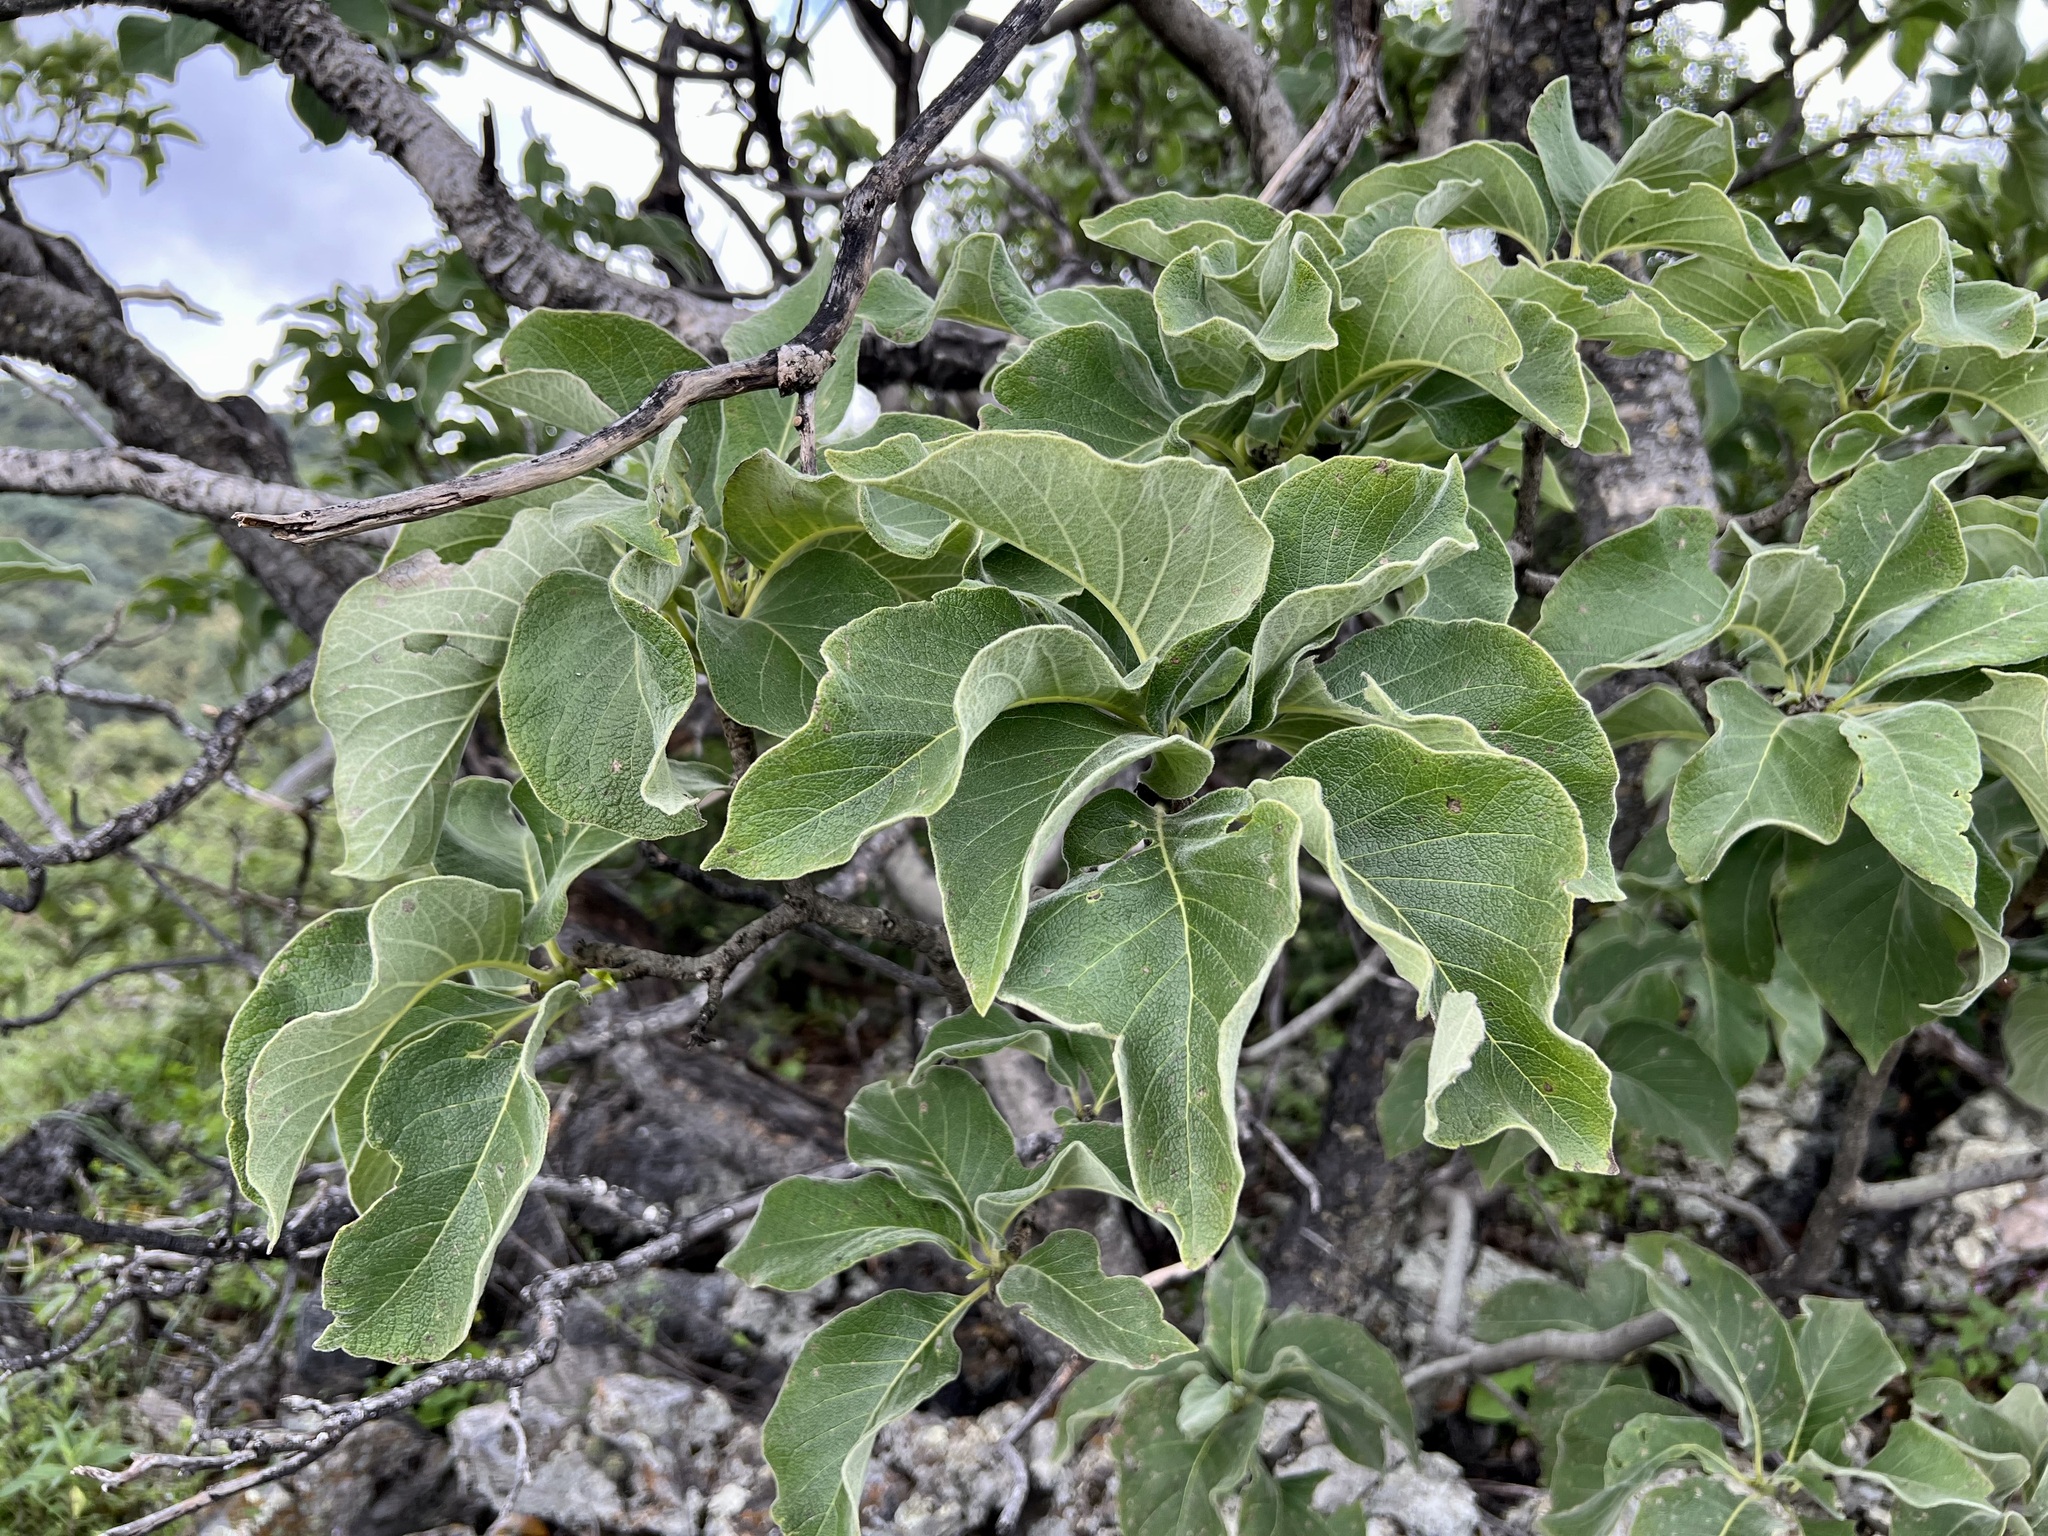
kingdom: Plantae
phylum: Tracheophyta
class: Magnoliopsida
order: Gentianales
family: Rubiaceae
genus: Randia
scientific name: Randia mollifolia
